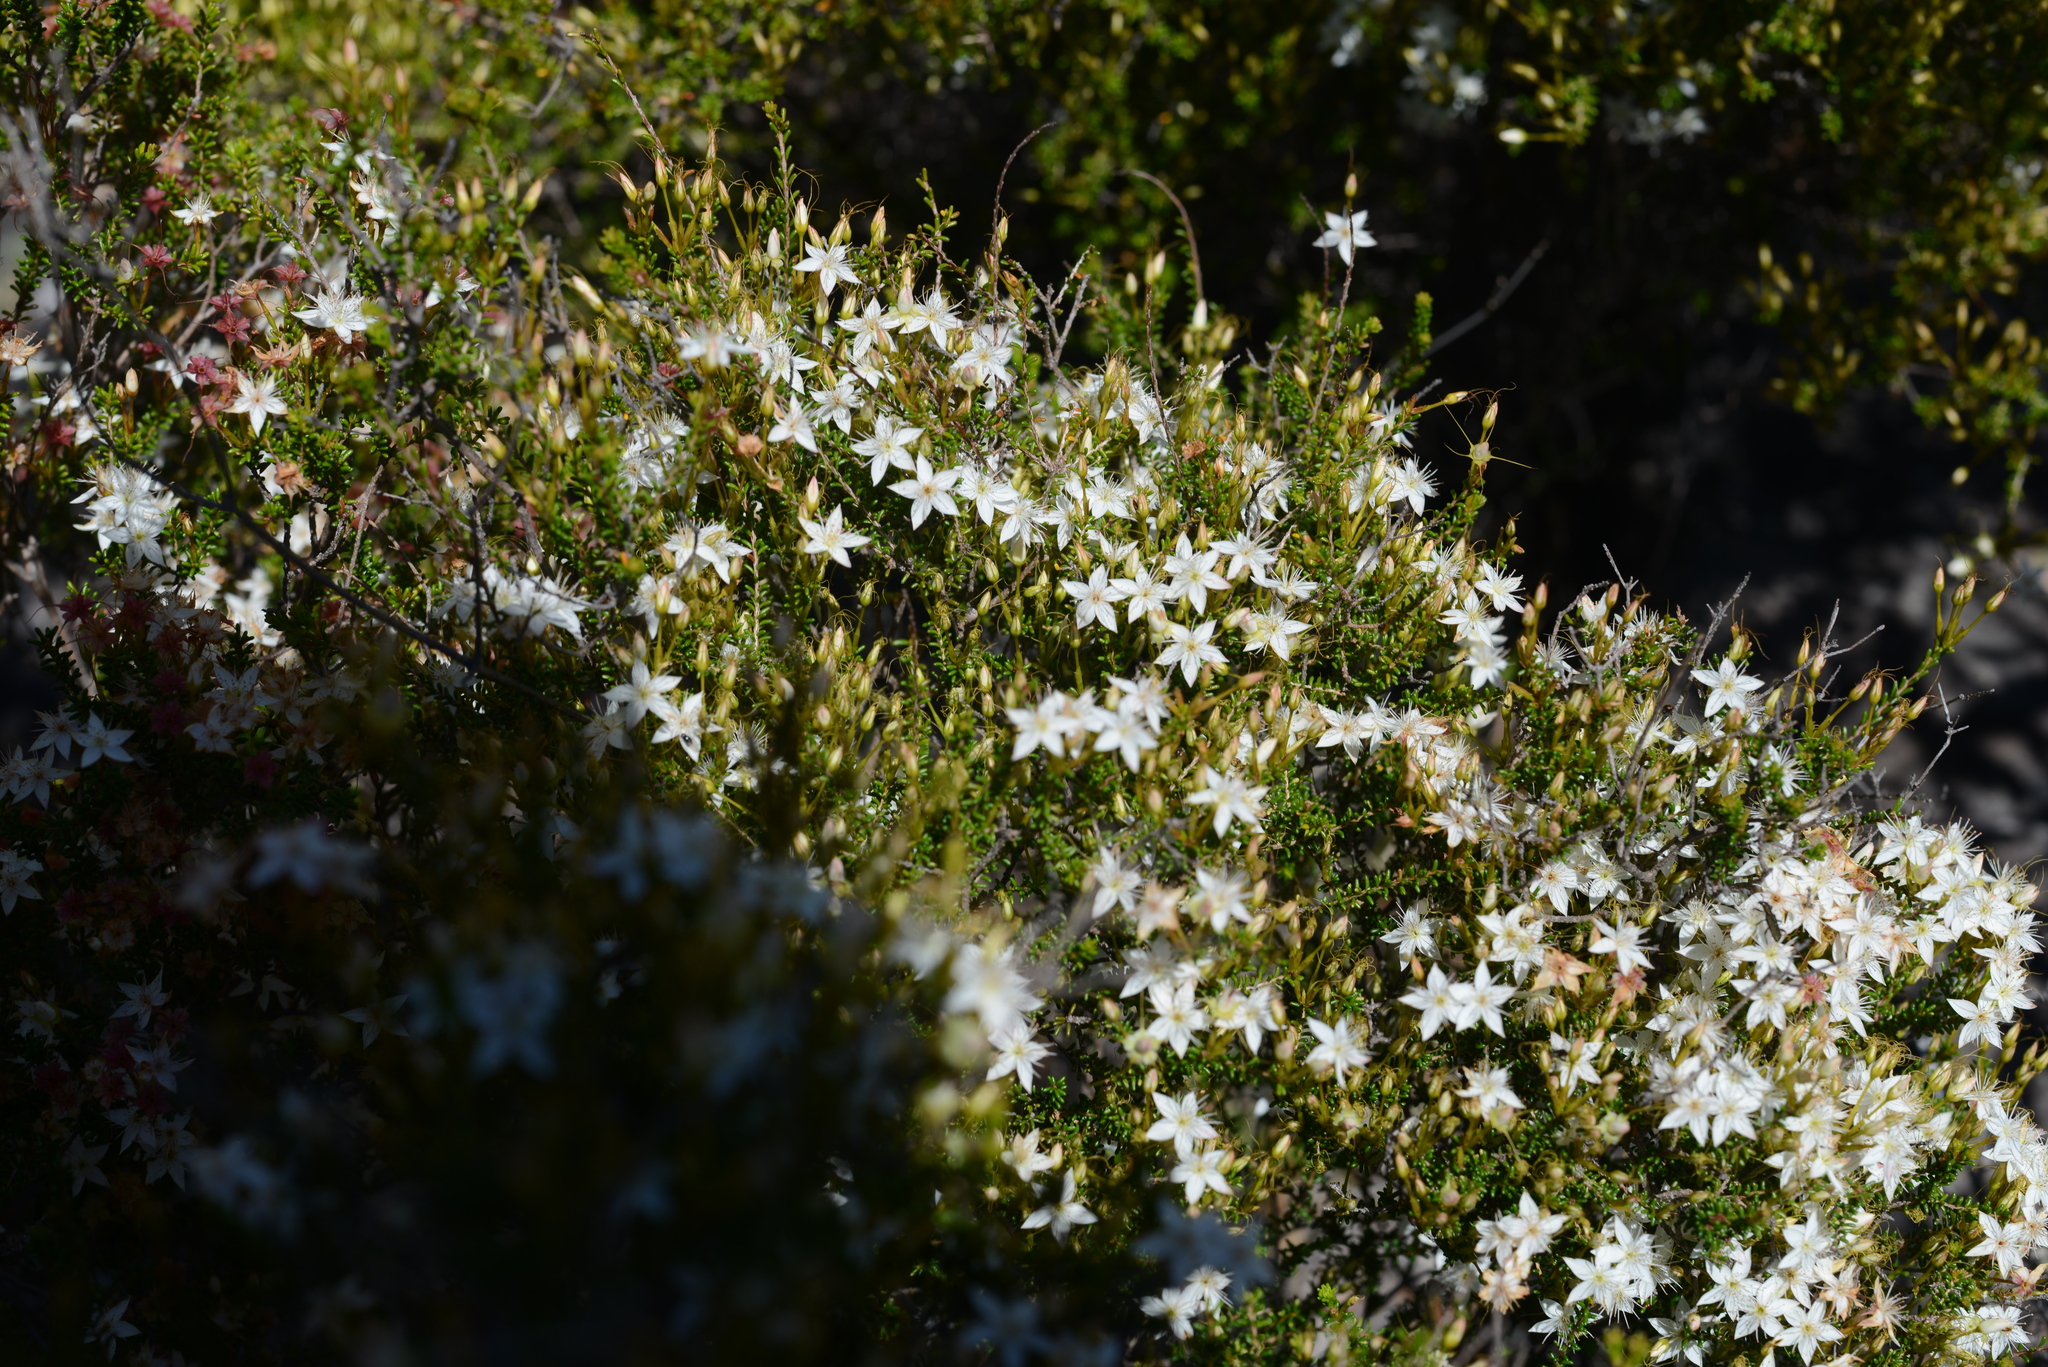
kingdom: Plantae
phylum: Tracheophyta
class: Magnoliopsida
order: Myrtales
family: Myrtaceae
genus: Calytrix
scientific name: Calytrix tetragona
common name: Common fringe myrtle
